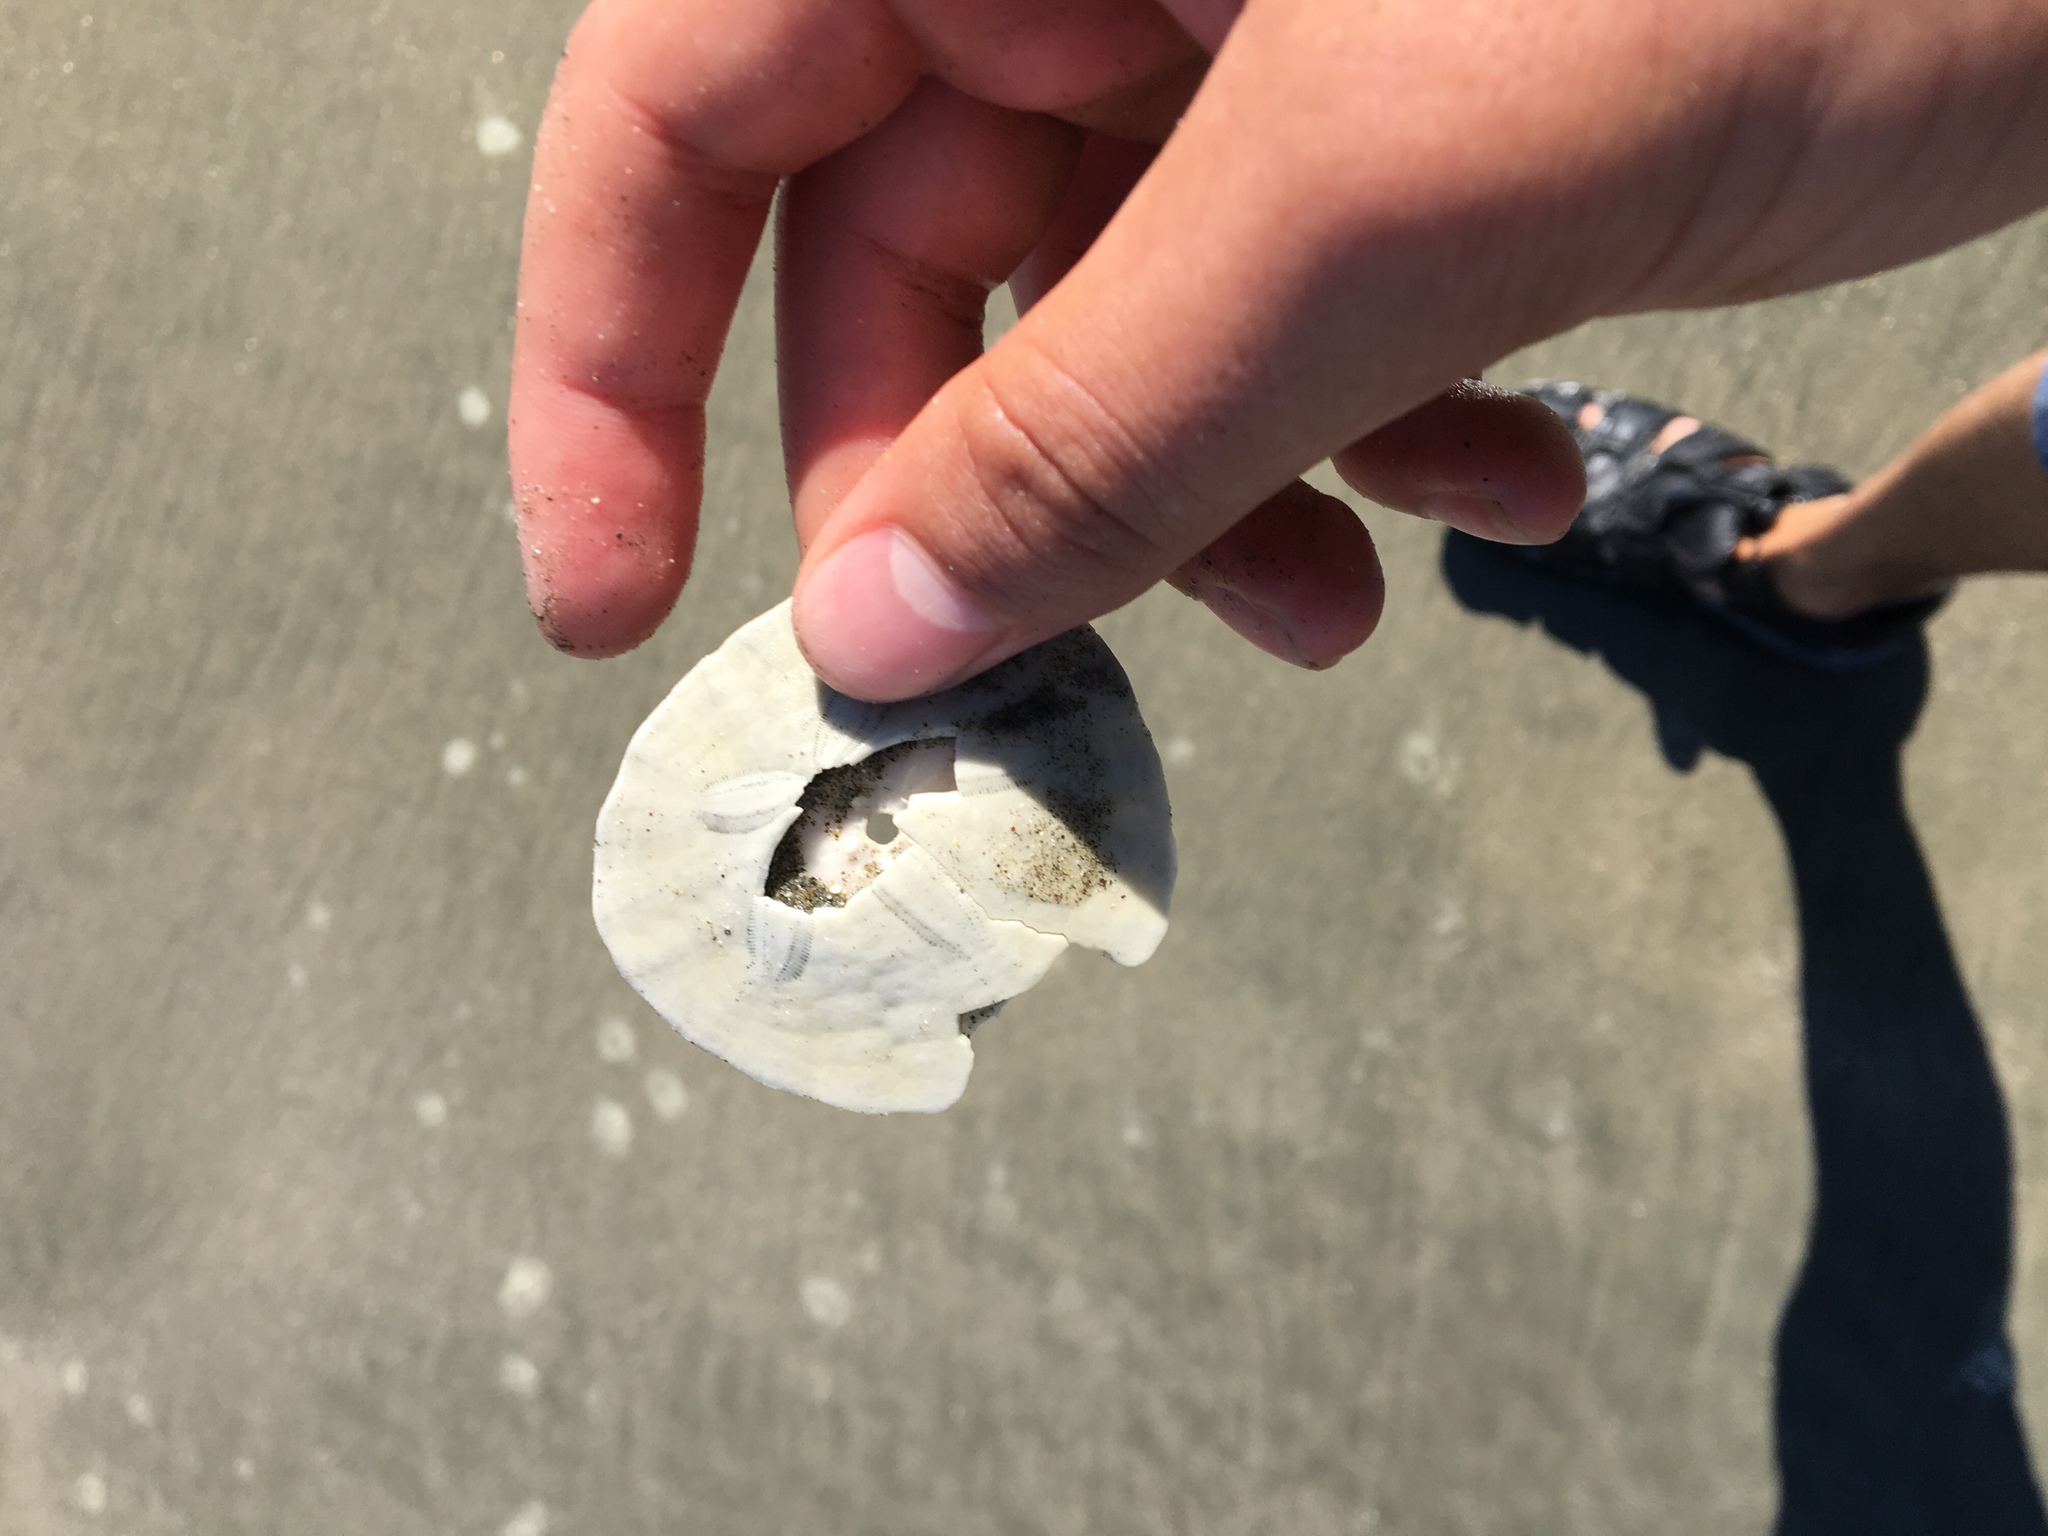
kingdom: Animalia
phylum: Echinodermata
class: Echinoidea
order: Echinolampadacea
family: Dendrasteridae
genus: Dendraster
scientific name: Dendraster excentricus
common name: Eccentric sand dollar sea urchin
